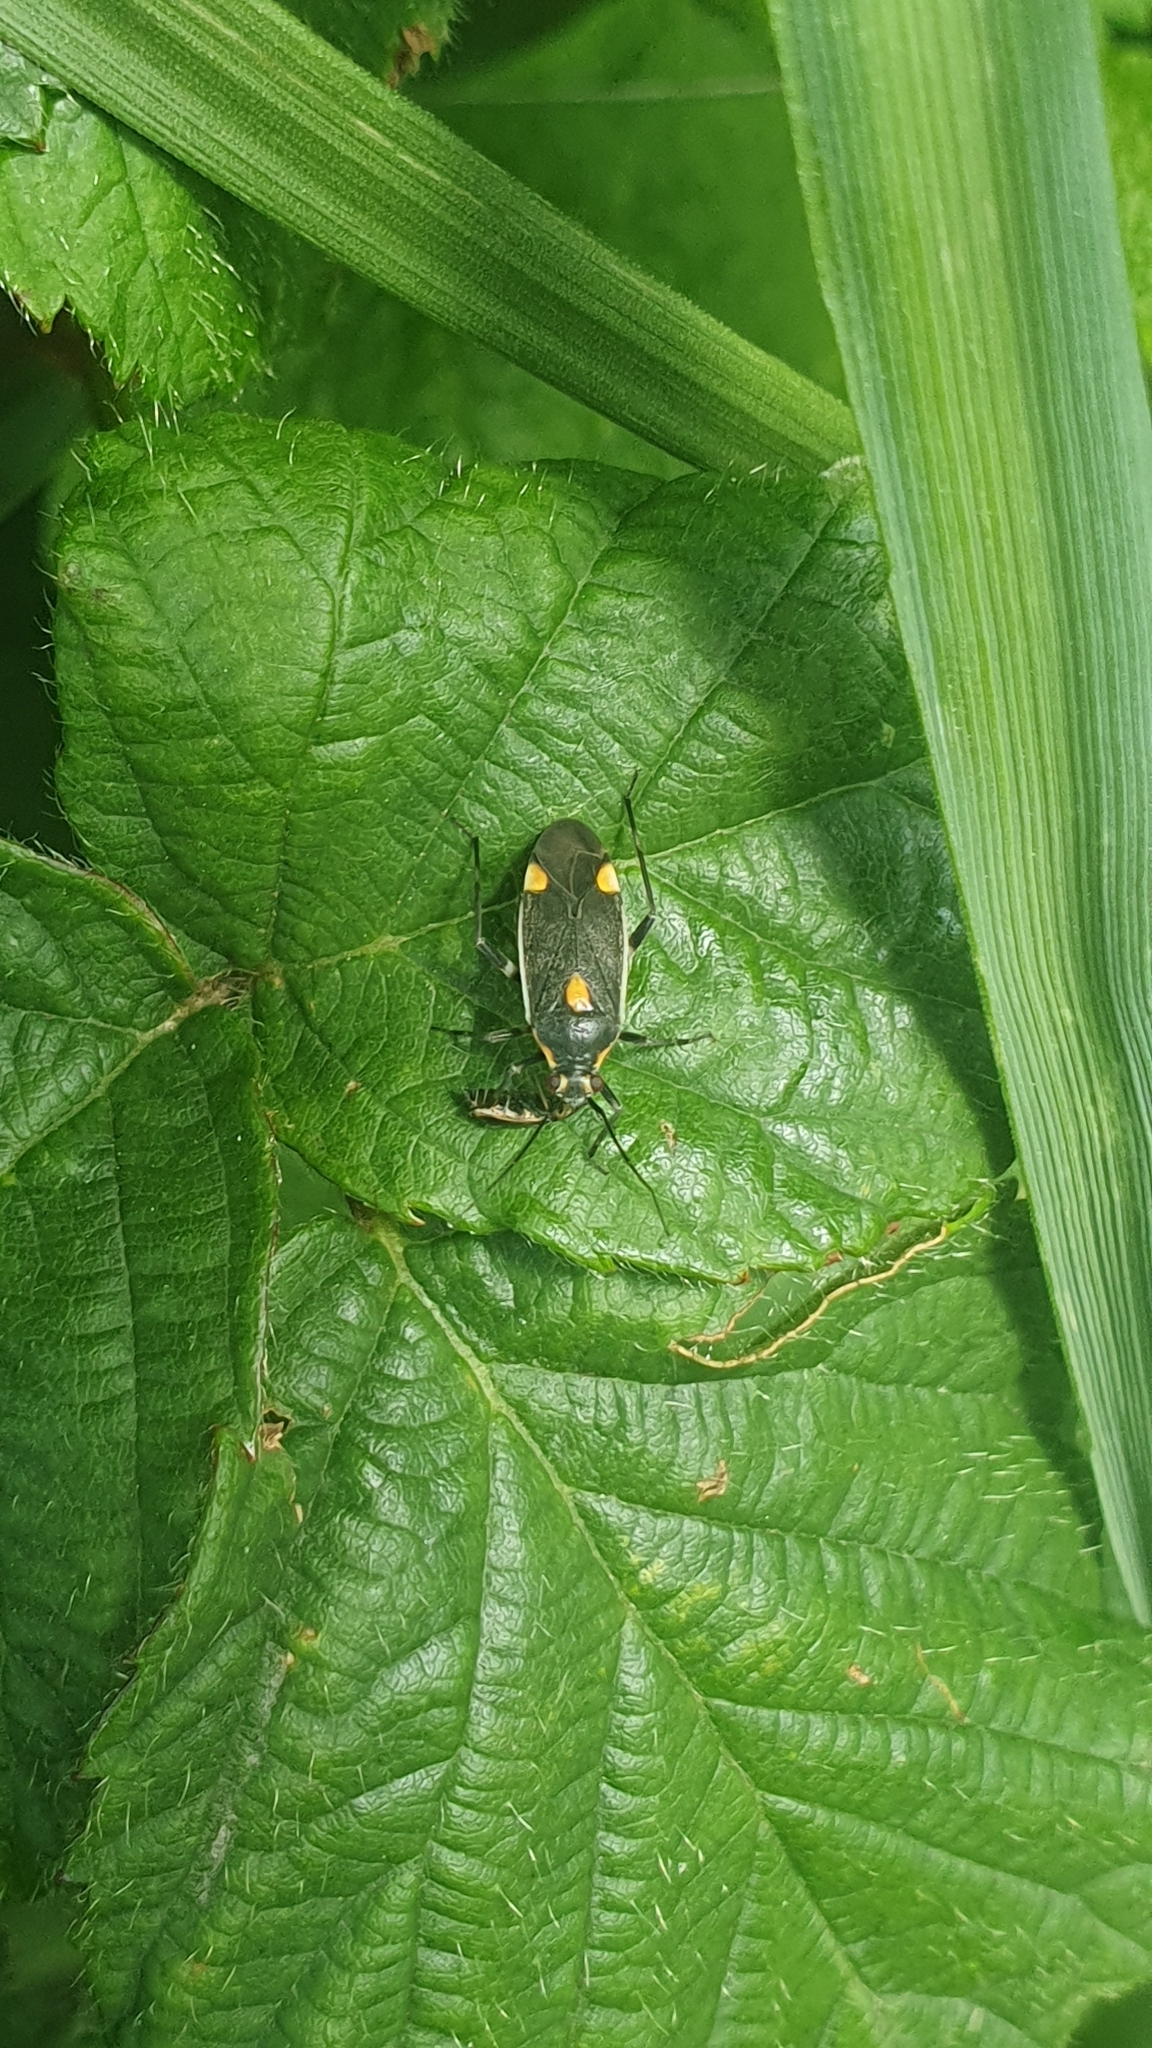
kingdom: Animalia
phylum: Arthropoda
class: Insecta
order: Hemiptera
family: Miridae
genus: Capsodes
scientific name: Capsodes flavomarginatus
